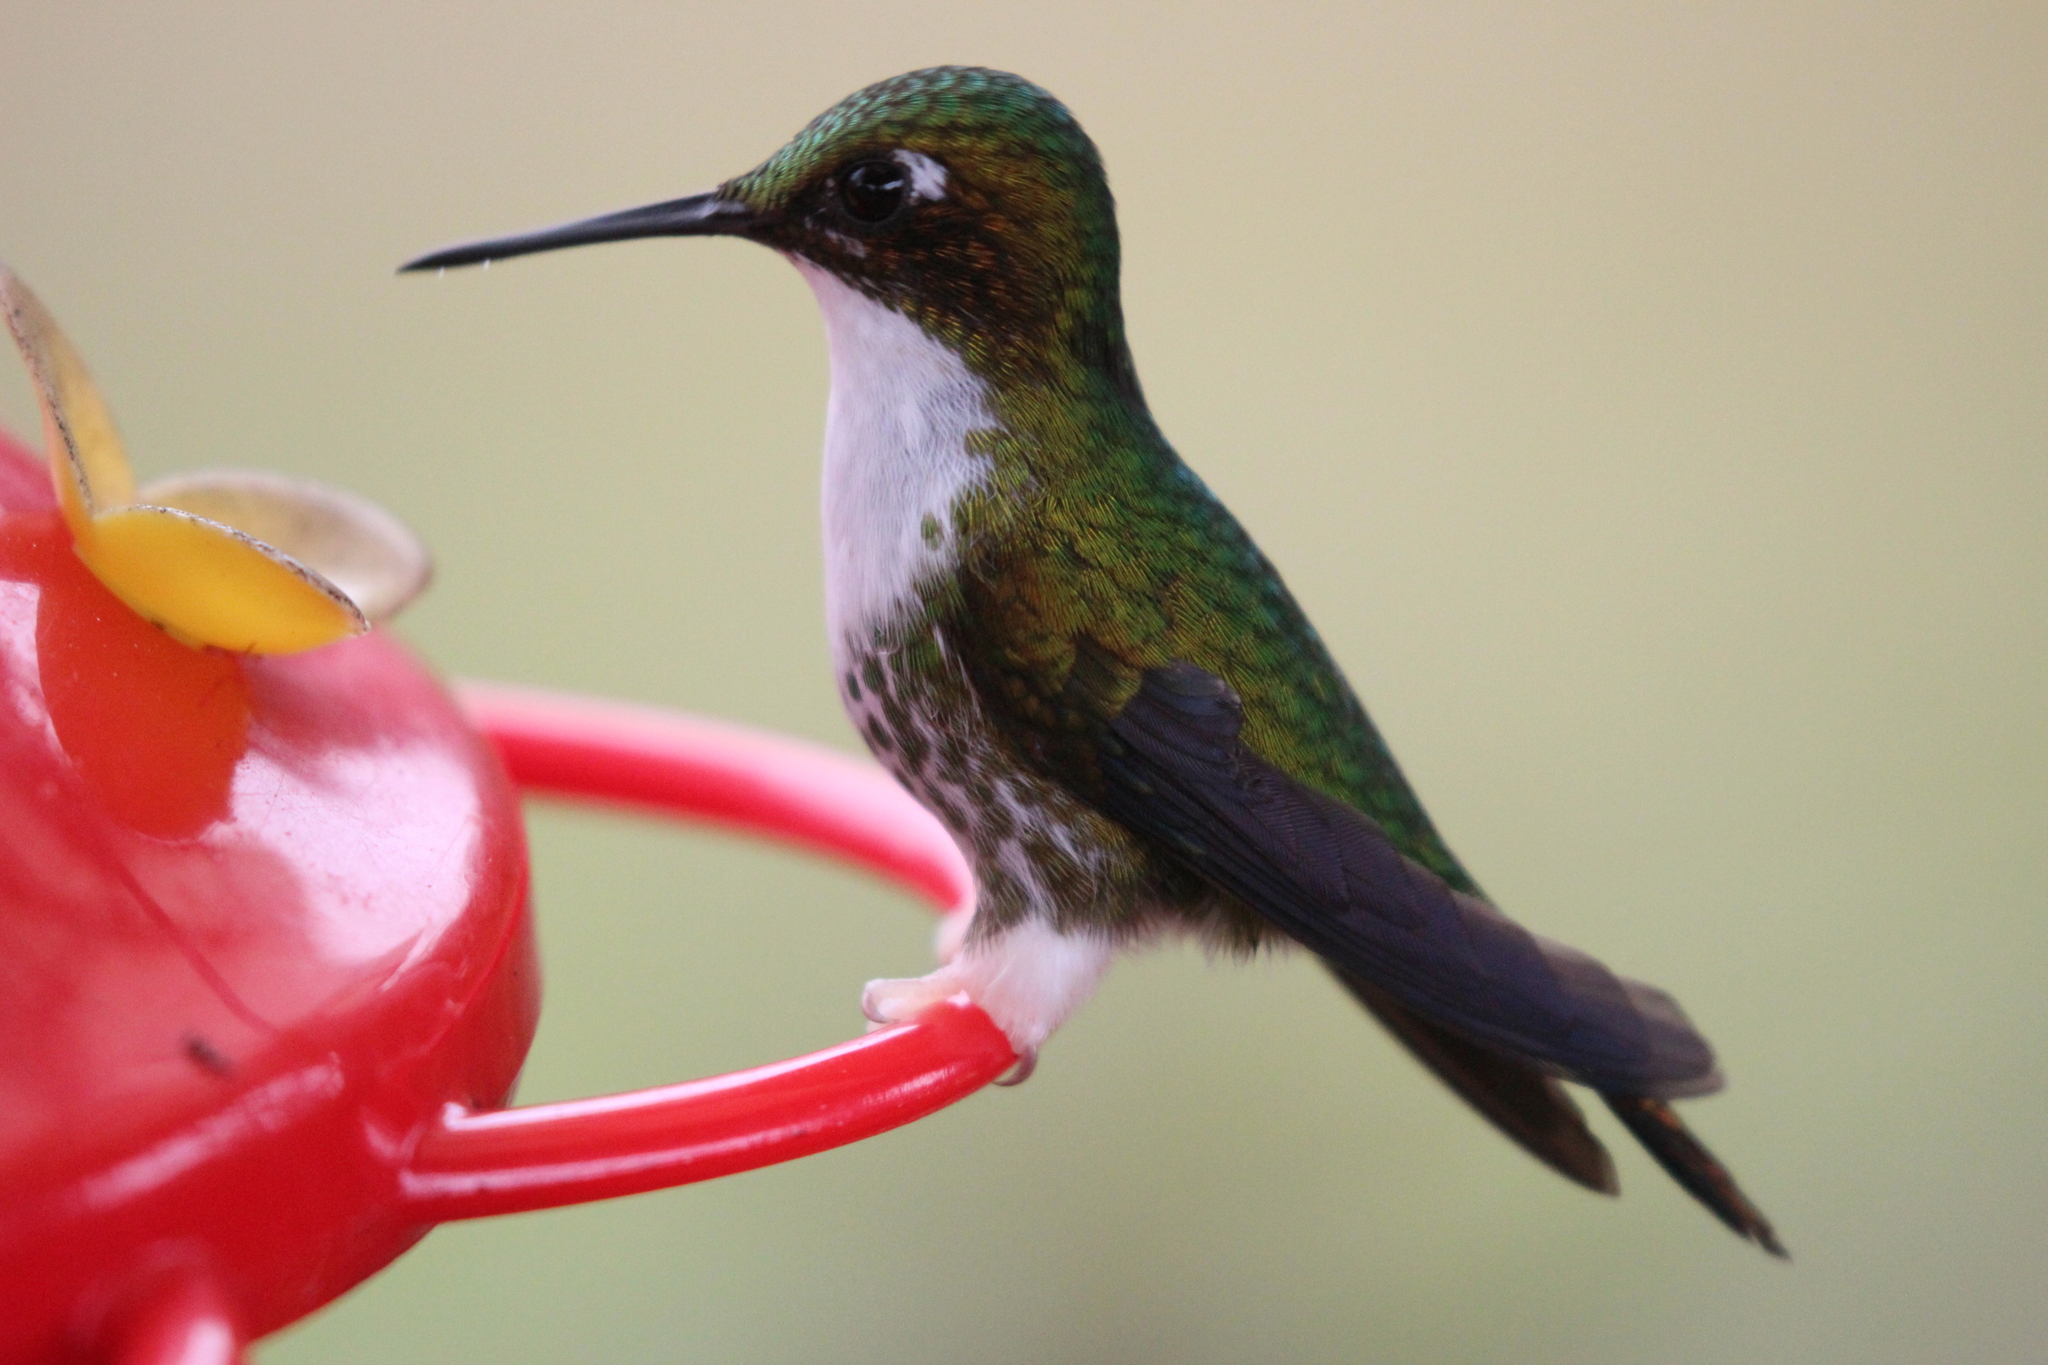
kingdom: Animalia
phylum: Chordata
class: Aves
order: Apodiformes
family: Trochilidae
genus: Ocreatus
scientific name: Ocreatus underwoodii
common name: Booted racket-tail
